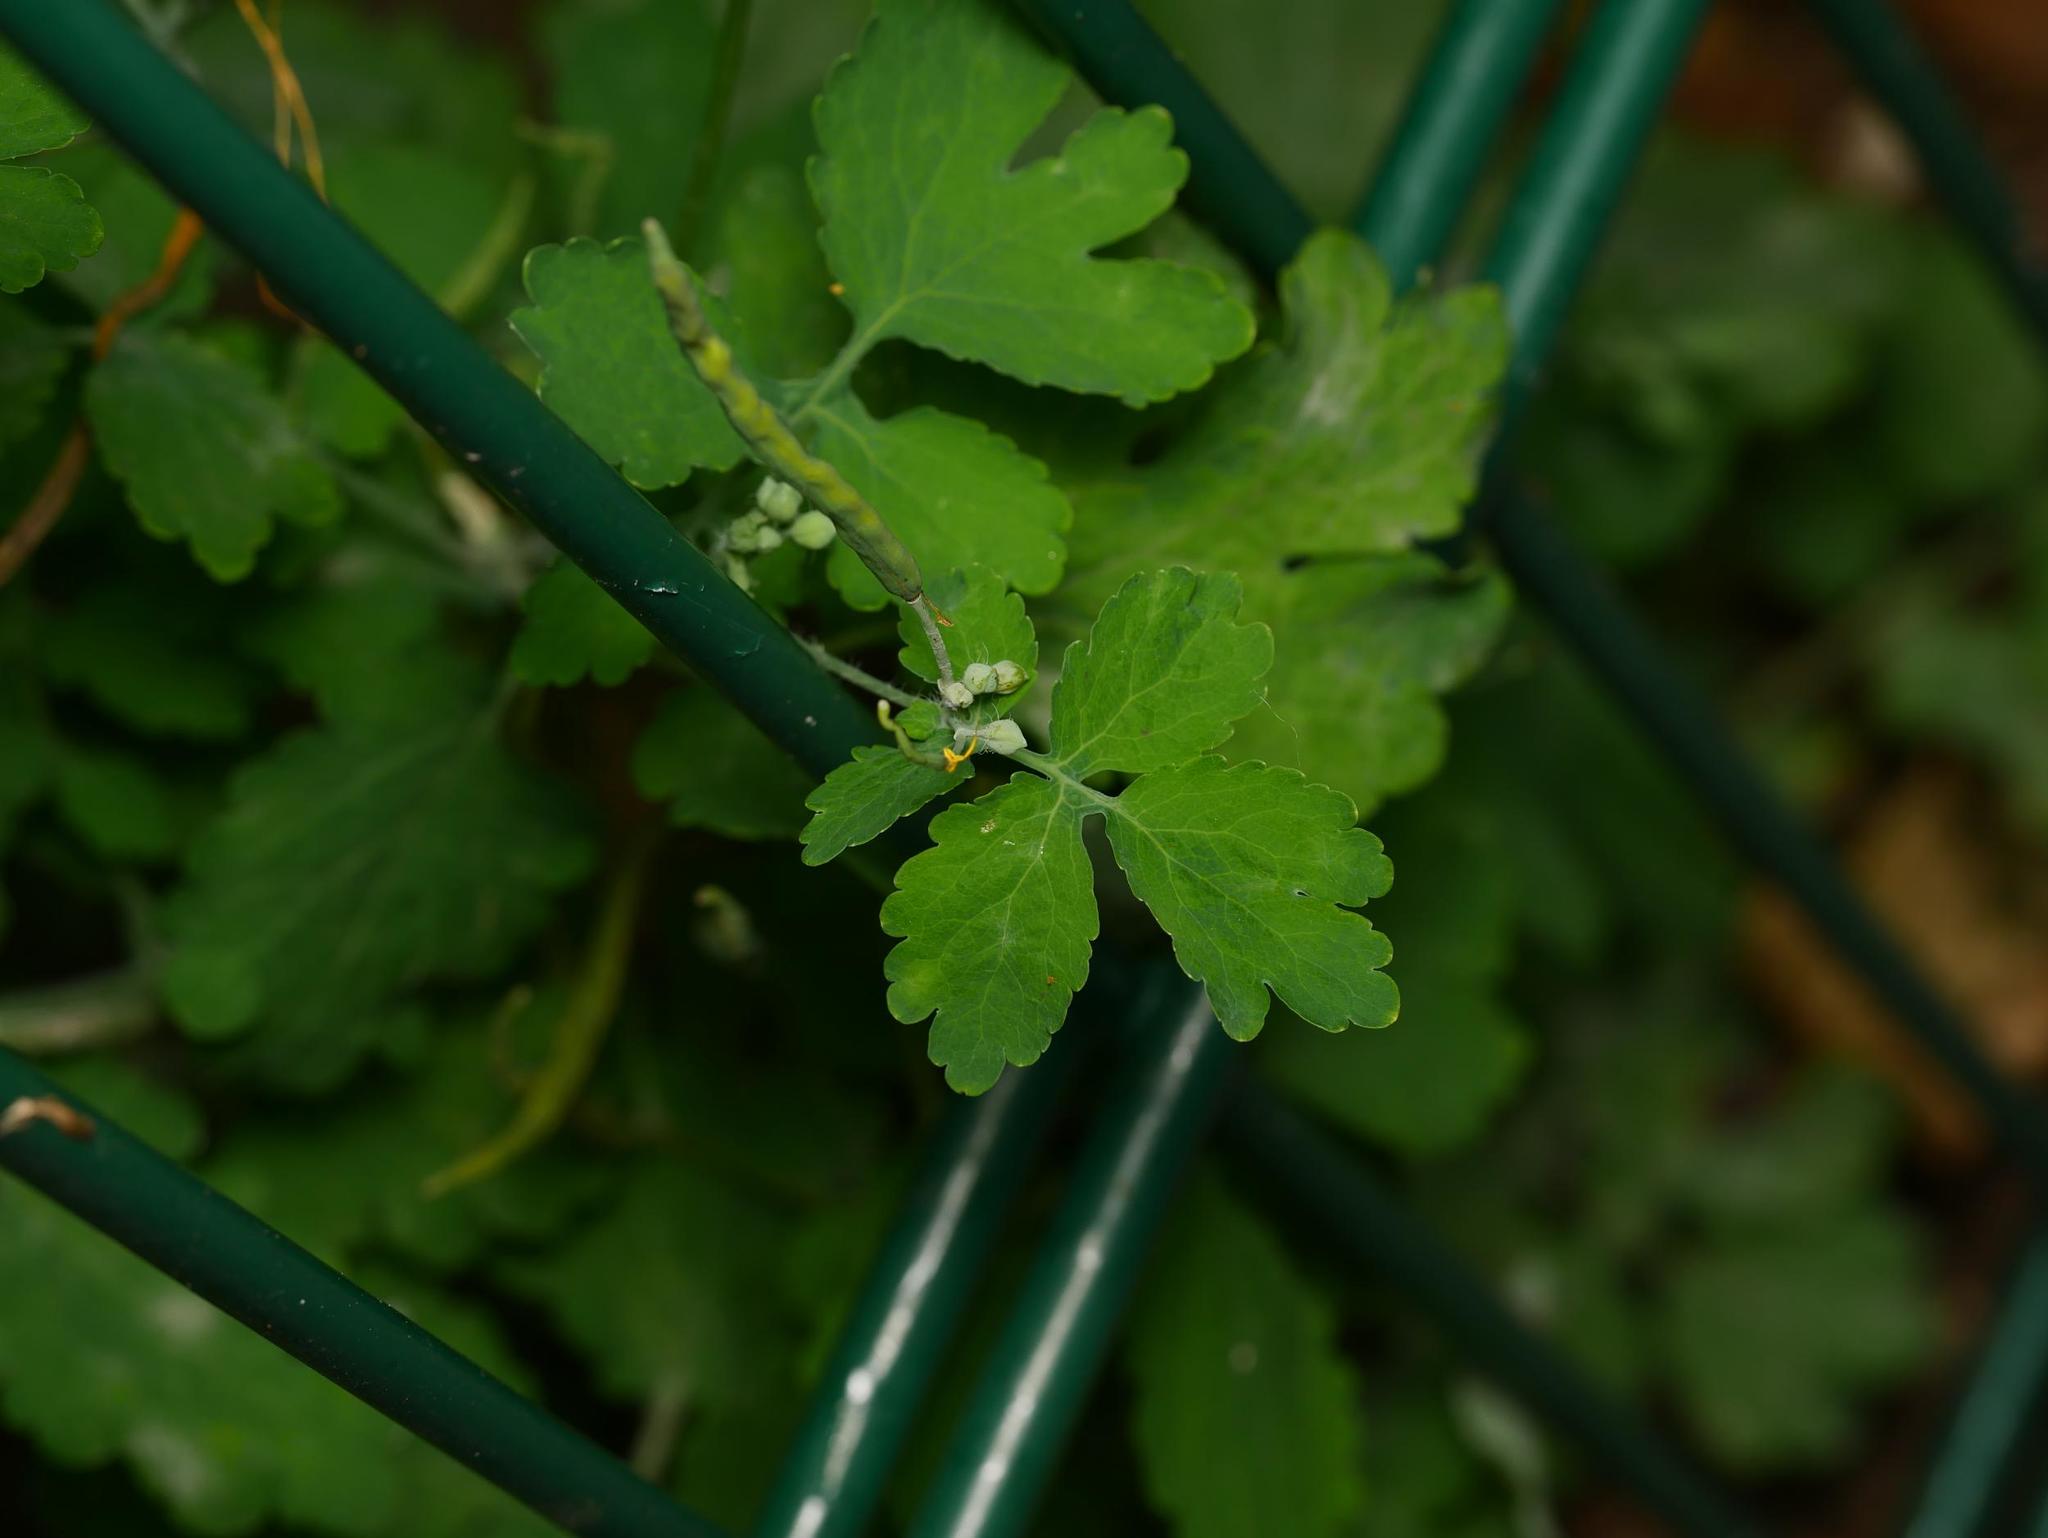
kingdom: Plantae
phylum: Tracheophyta
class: Magnoliopsida
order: Ranunculales
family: Papaveraceae
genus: Chelidonium
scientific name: Chelidonium majus
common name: Greater celandine
